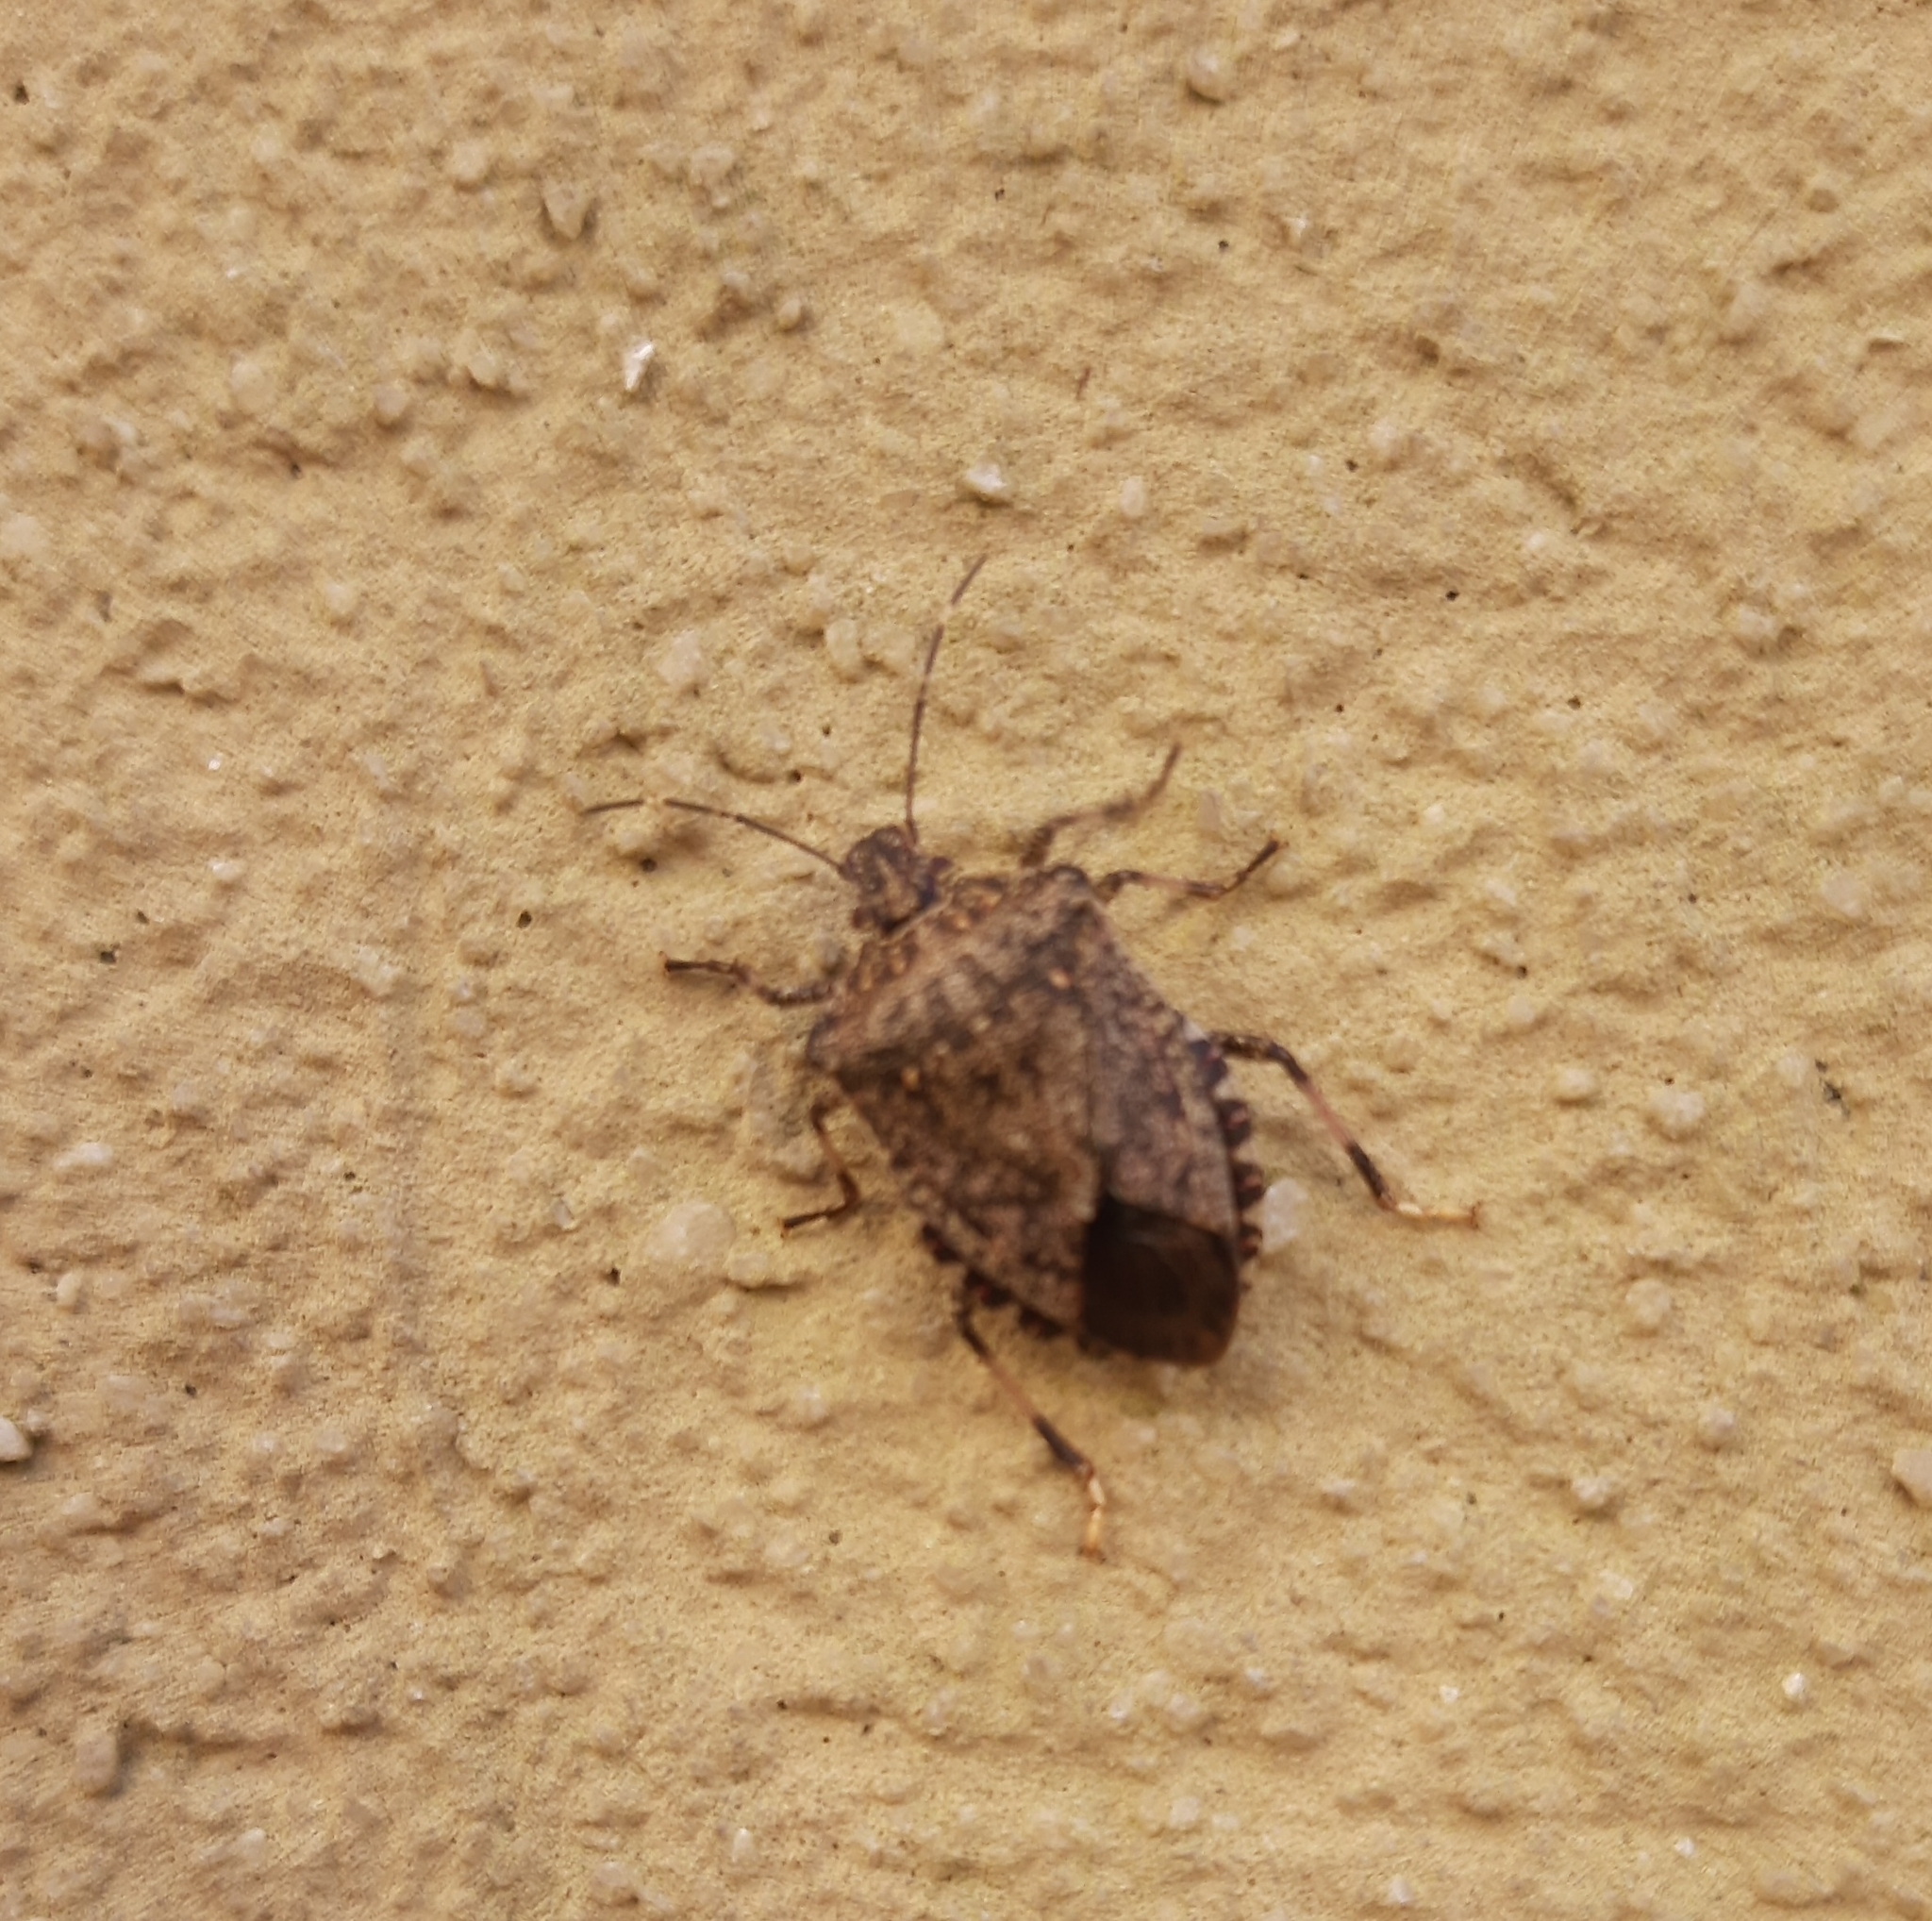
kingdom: Animalia
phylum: Arthropoda
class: Insecta
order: Hemiptera
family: Pentatomidae
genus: Halyomorpha
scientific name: Halyomorpha halys
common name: Brown marmorated stink bug
